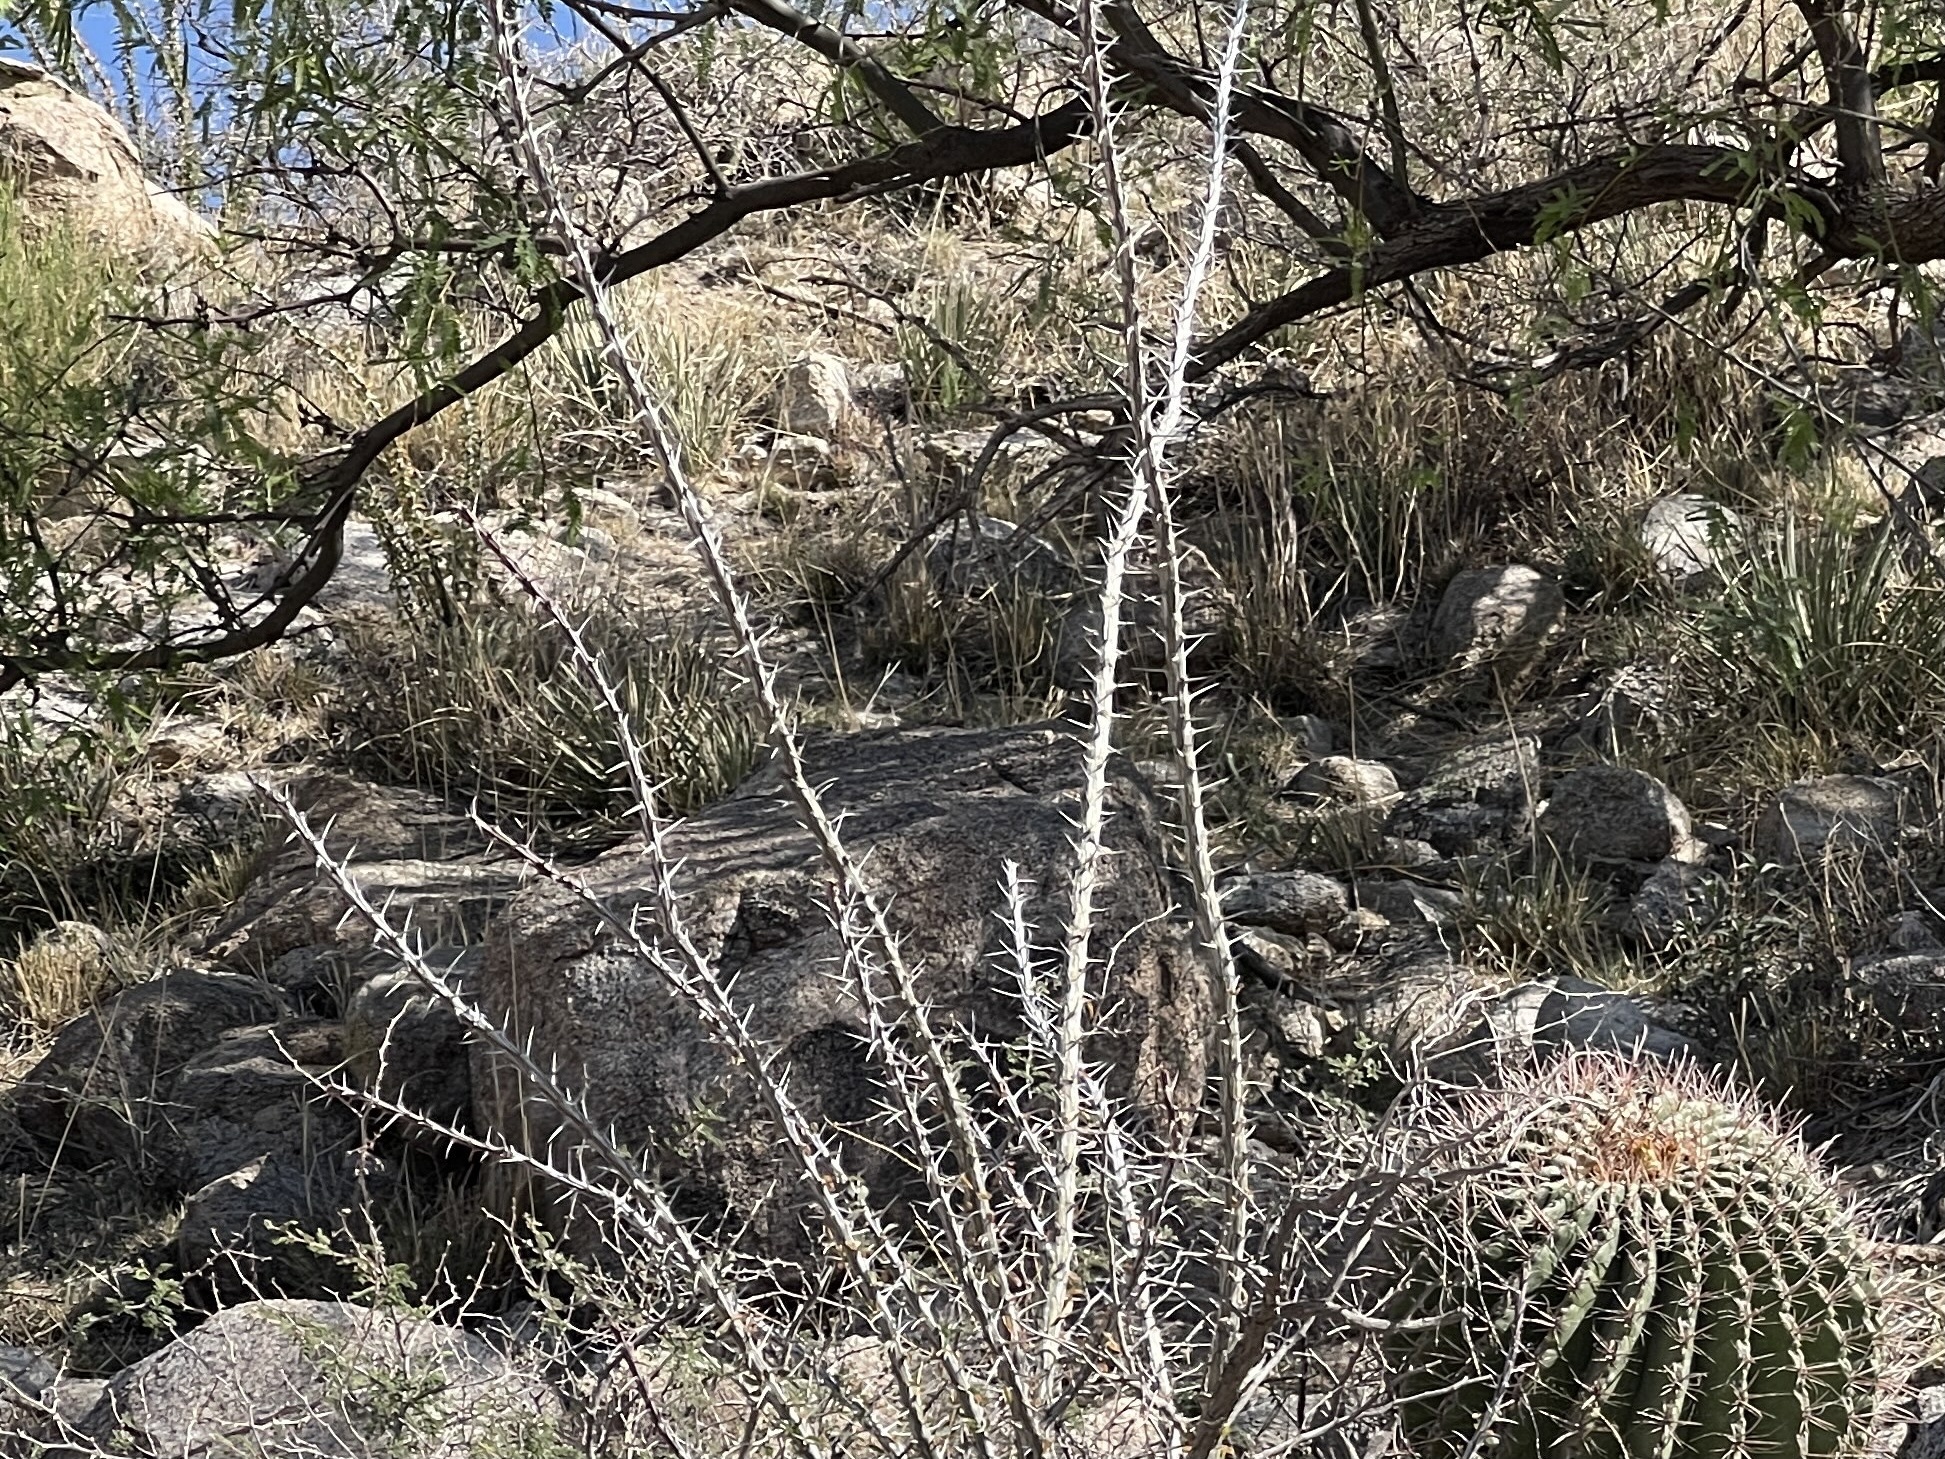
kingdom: Plantae
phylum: Tracheophyta
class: Magnoliopsida
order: Ericales
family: Fouquieriaceae
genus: Fouquieria
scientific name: Fouquieria splendens
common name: Vine-cactus
